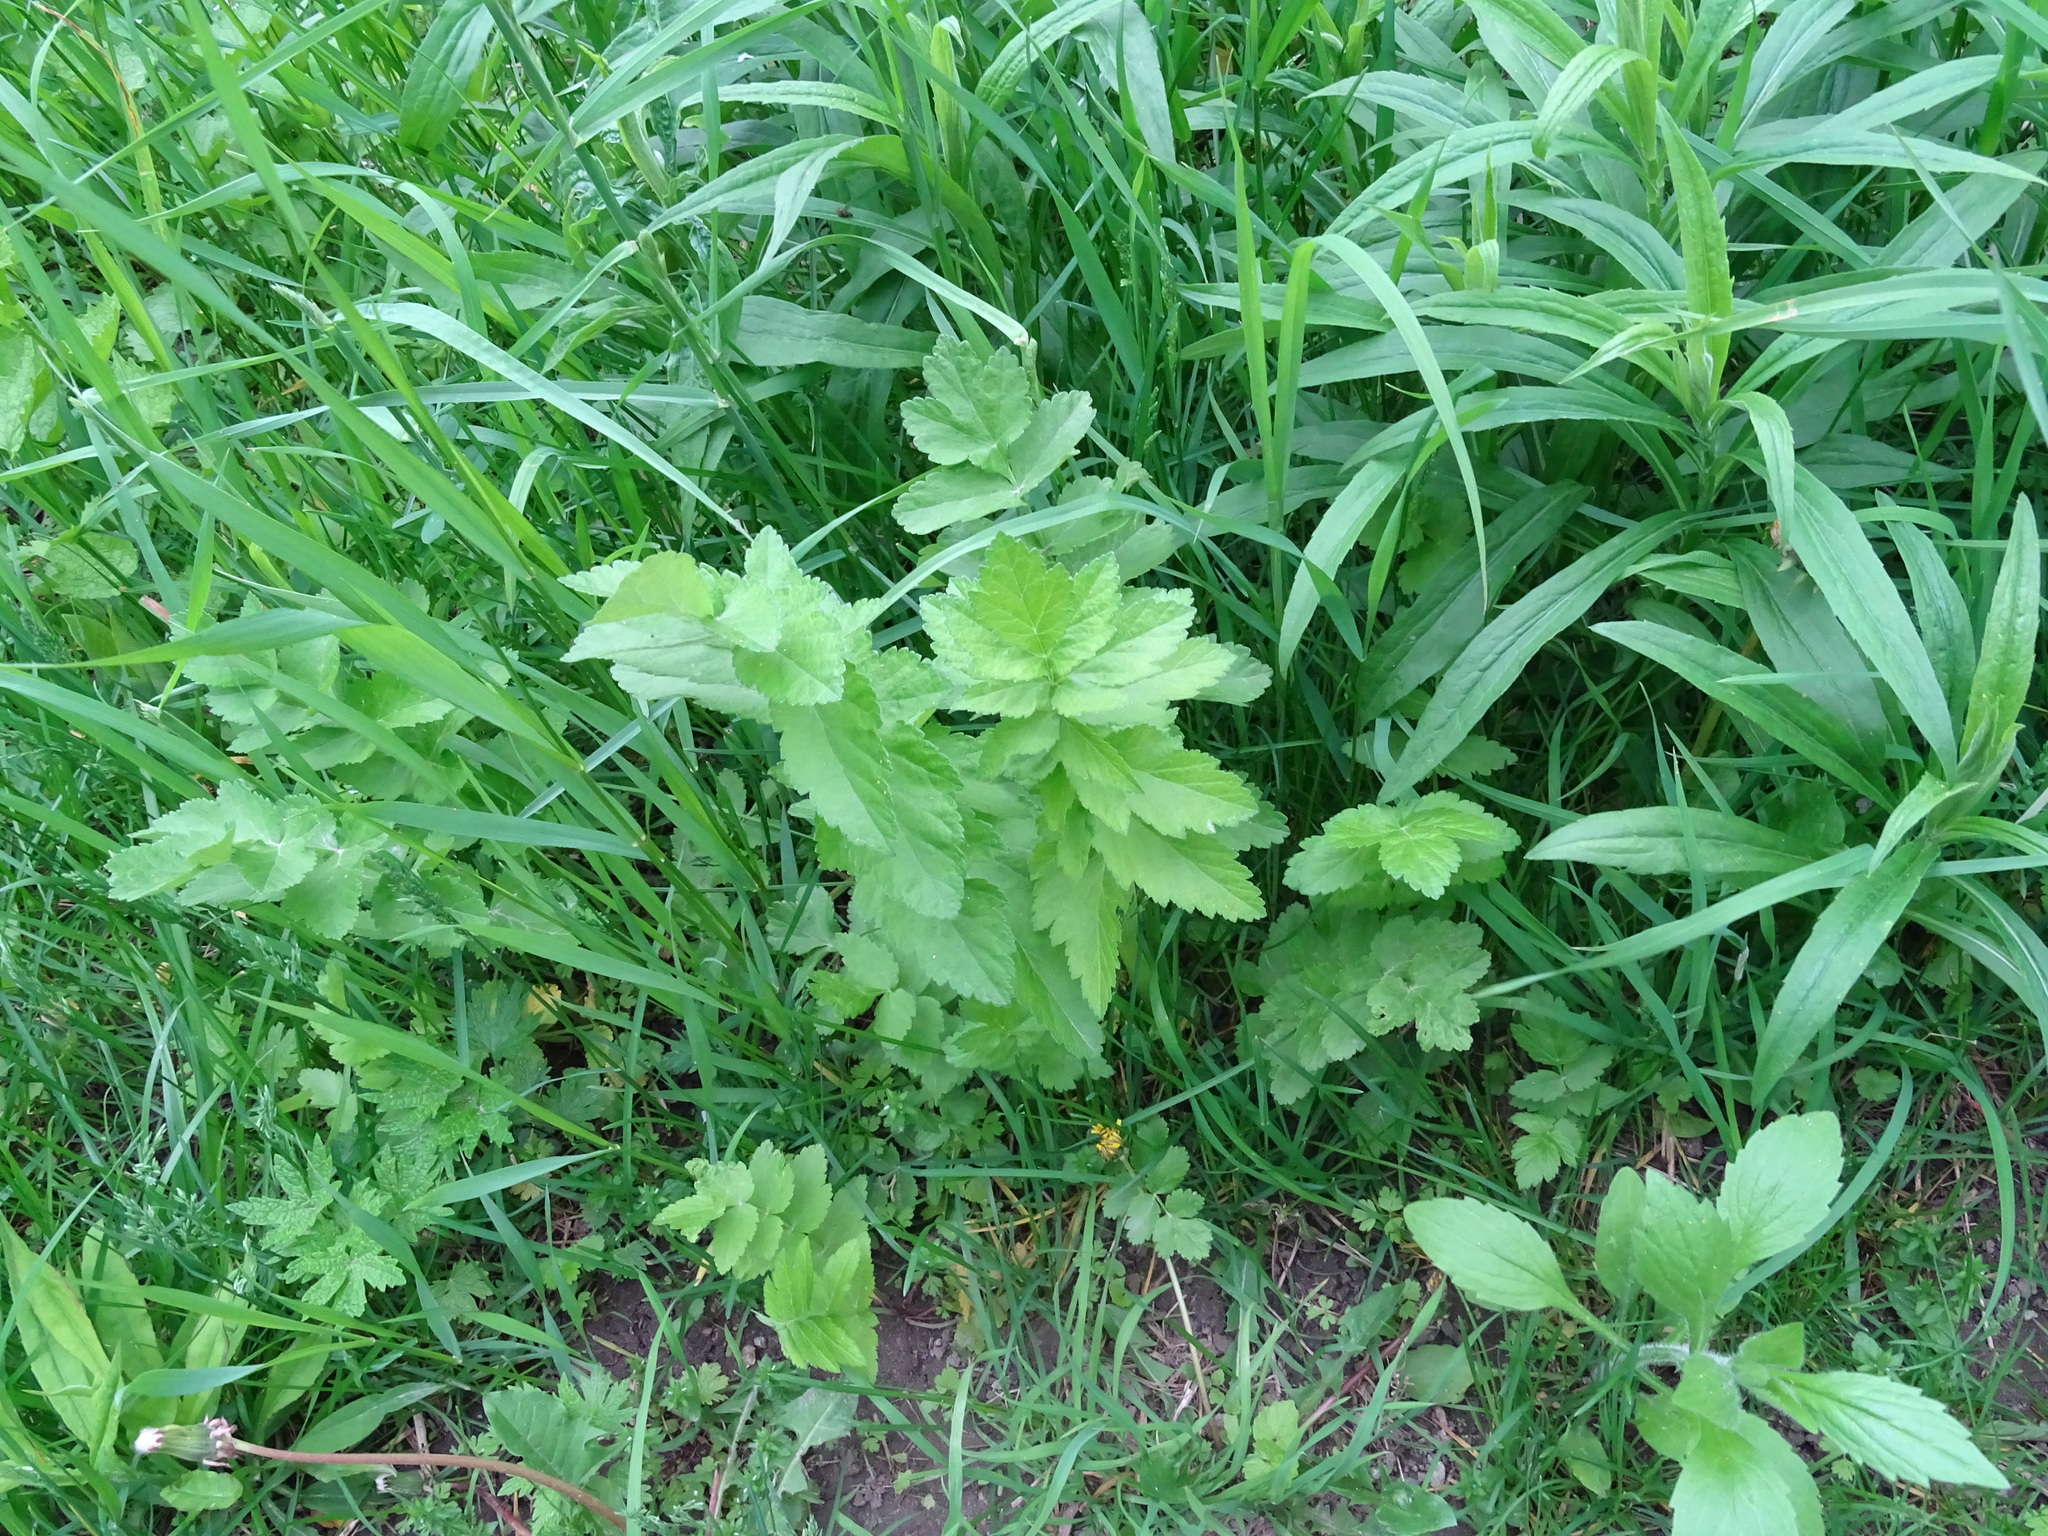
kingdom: Plantae
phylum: Tracheophyta
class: Magnoliopsida
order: Apiales
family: Apiaceae
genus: Pastinaca
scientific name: Pastinaca sativa
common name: Wild parsnip
